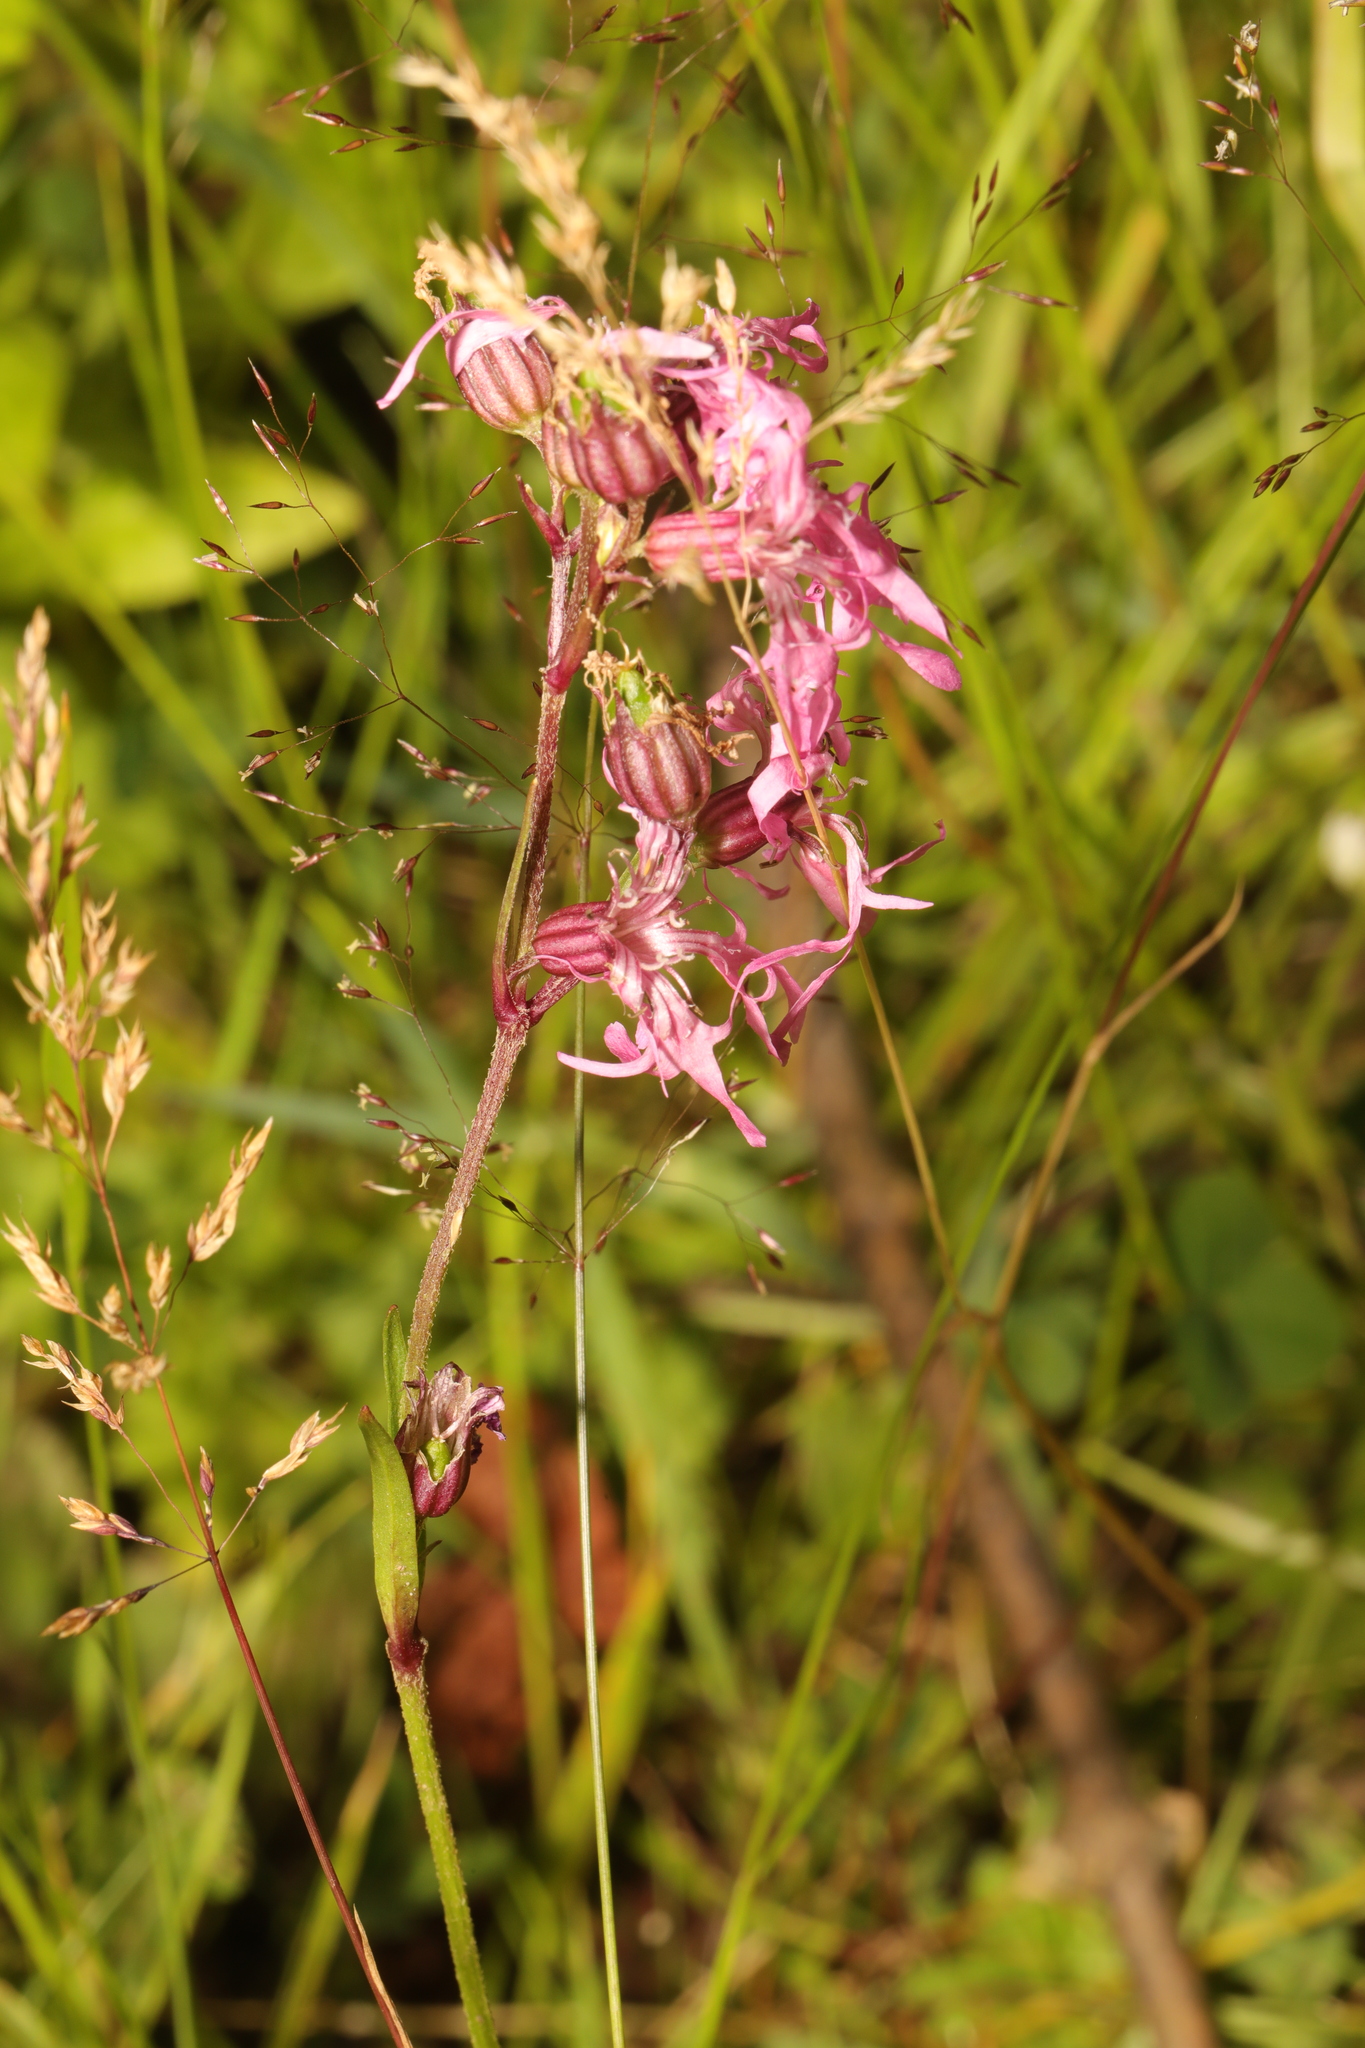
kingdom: Plantae
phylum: Tracheophyta
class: Magnoliopsida
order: Caryophyllales
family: Caryophyllaceae
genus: Silene
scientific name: Silene flos-cuculi
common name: Ragged-robin
